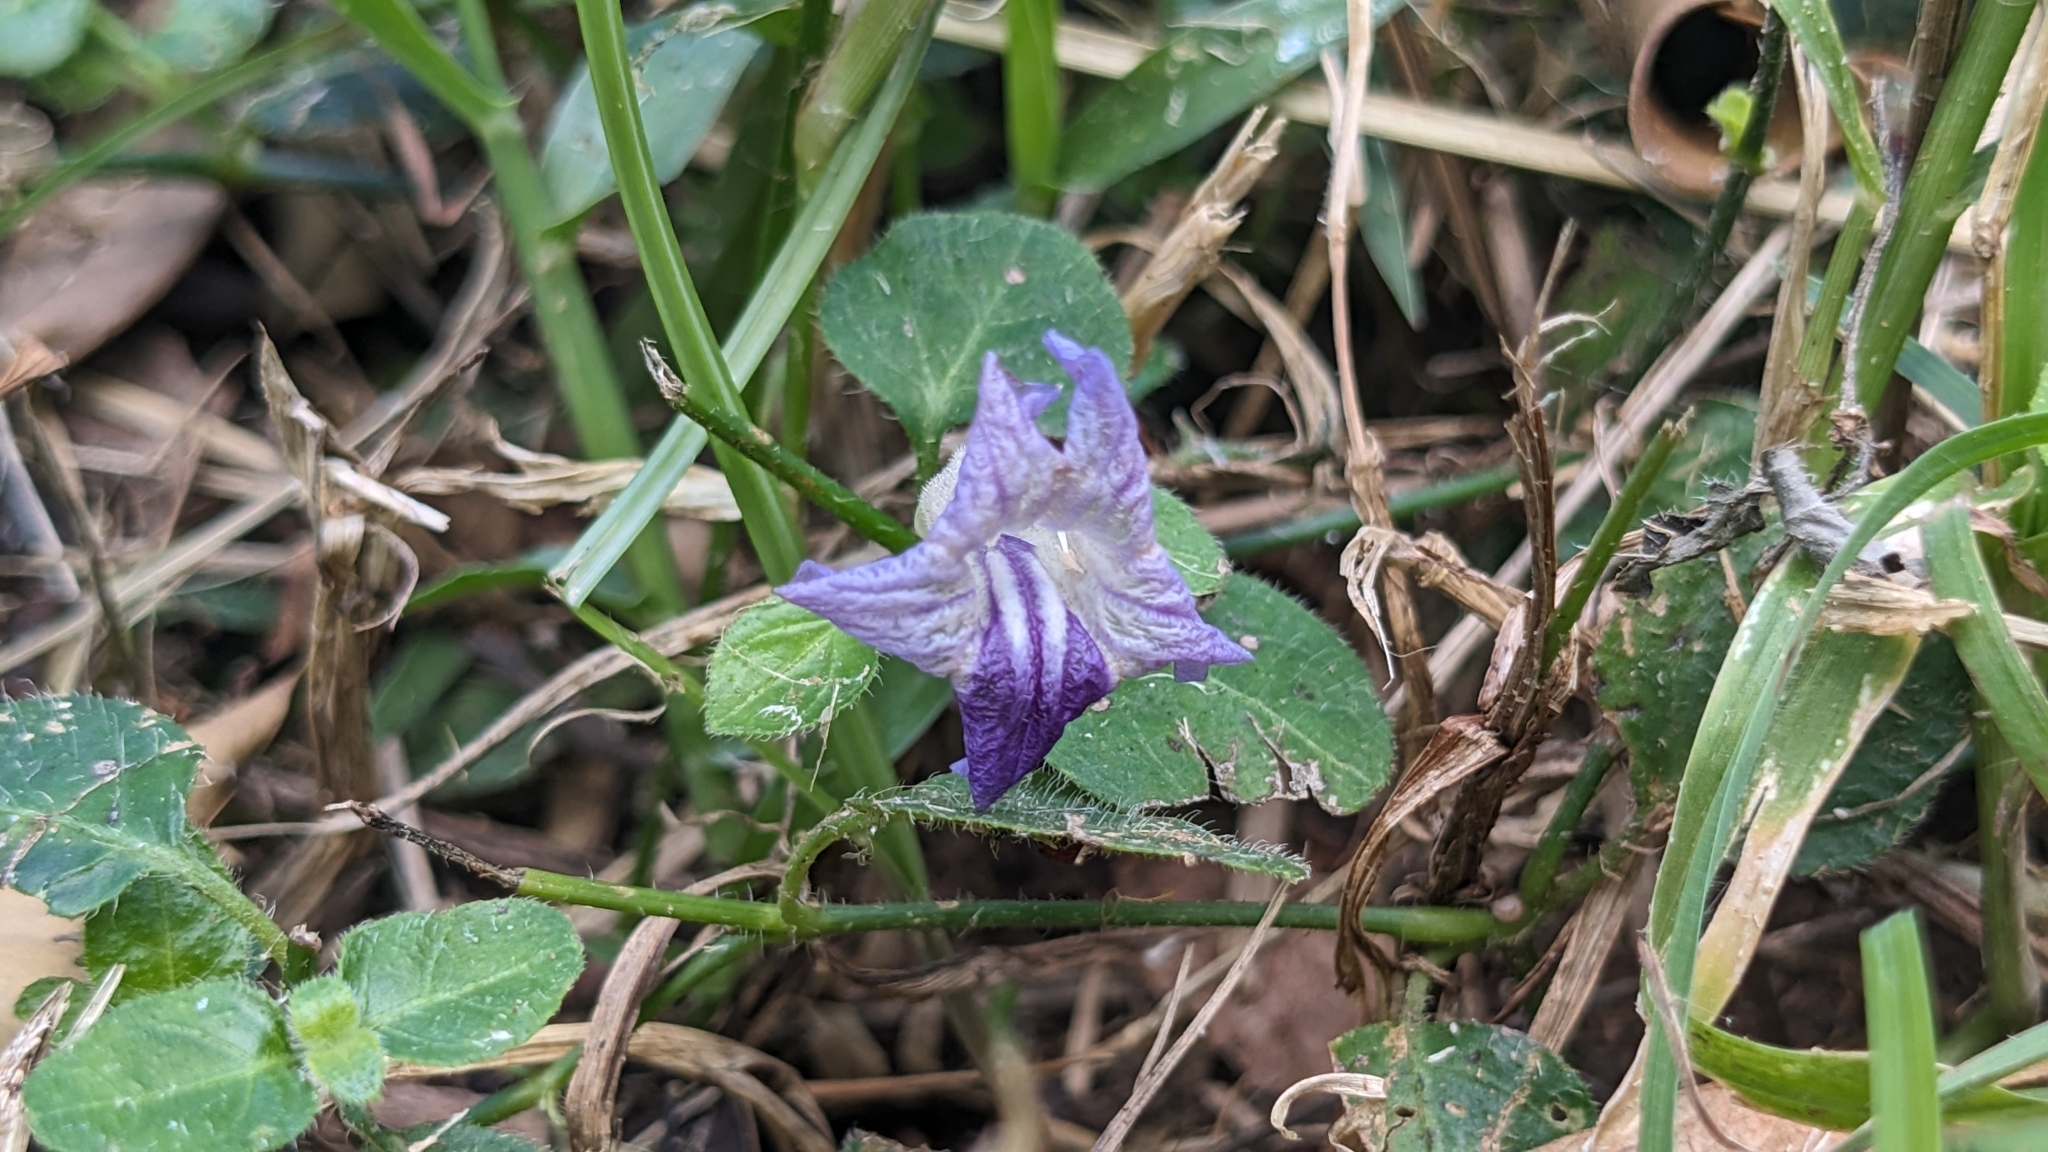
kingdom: Plantae
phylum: Tracheophyta
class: Magnoliopsida
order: Lamiales
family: Acanthaceae
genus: Ruellia
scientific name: Ruellia repens
